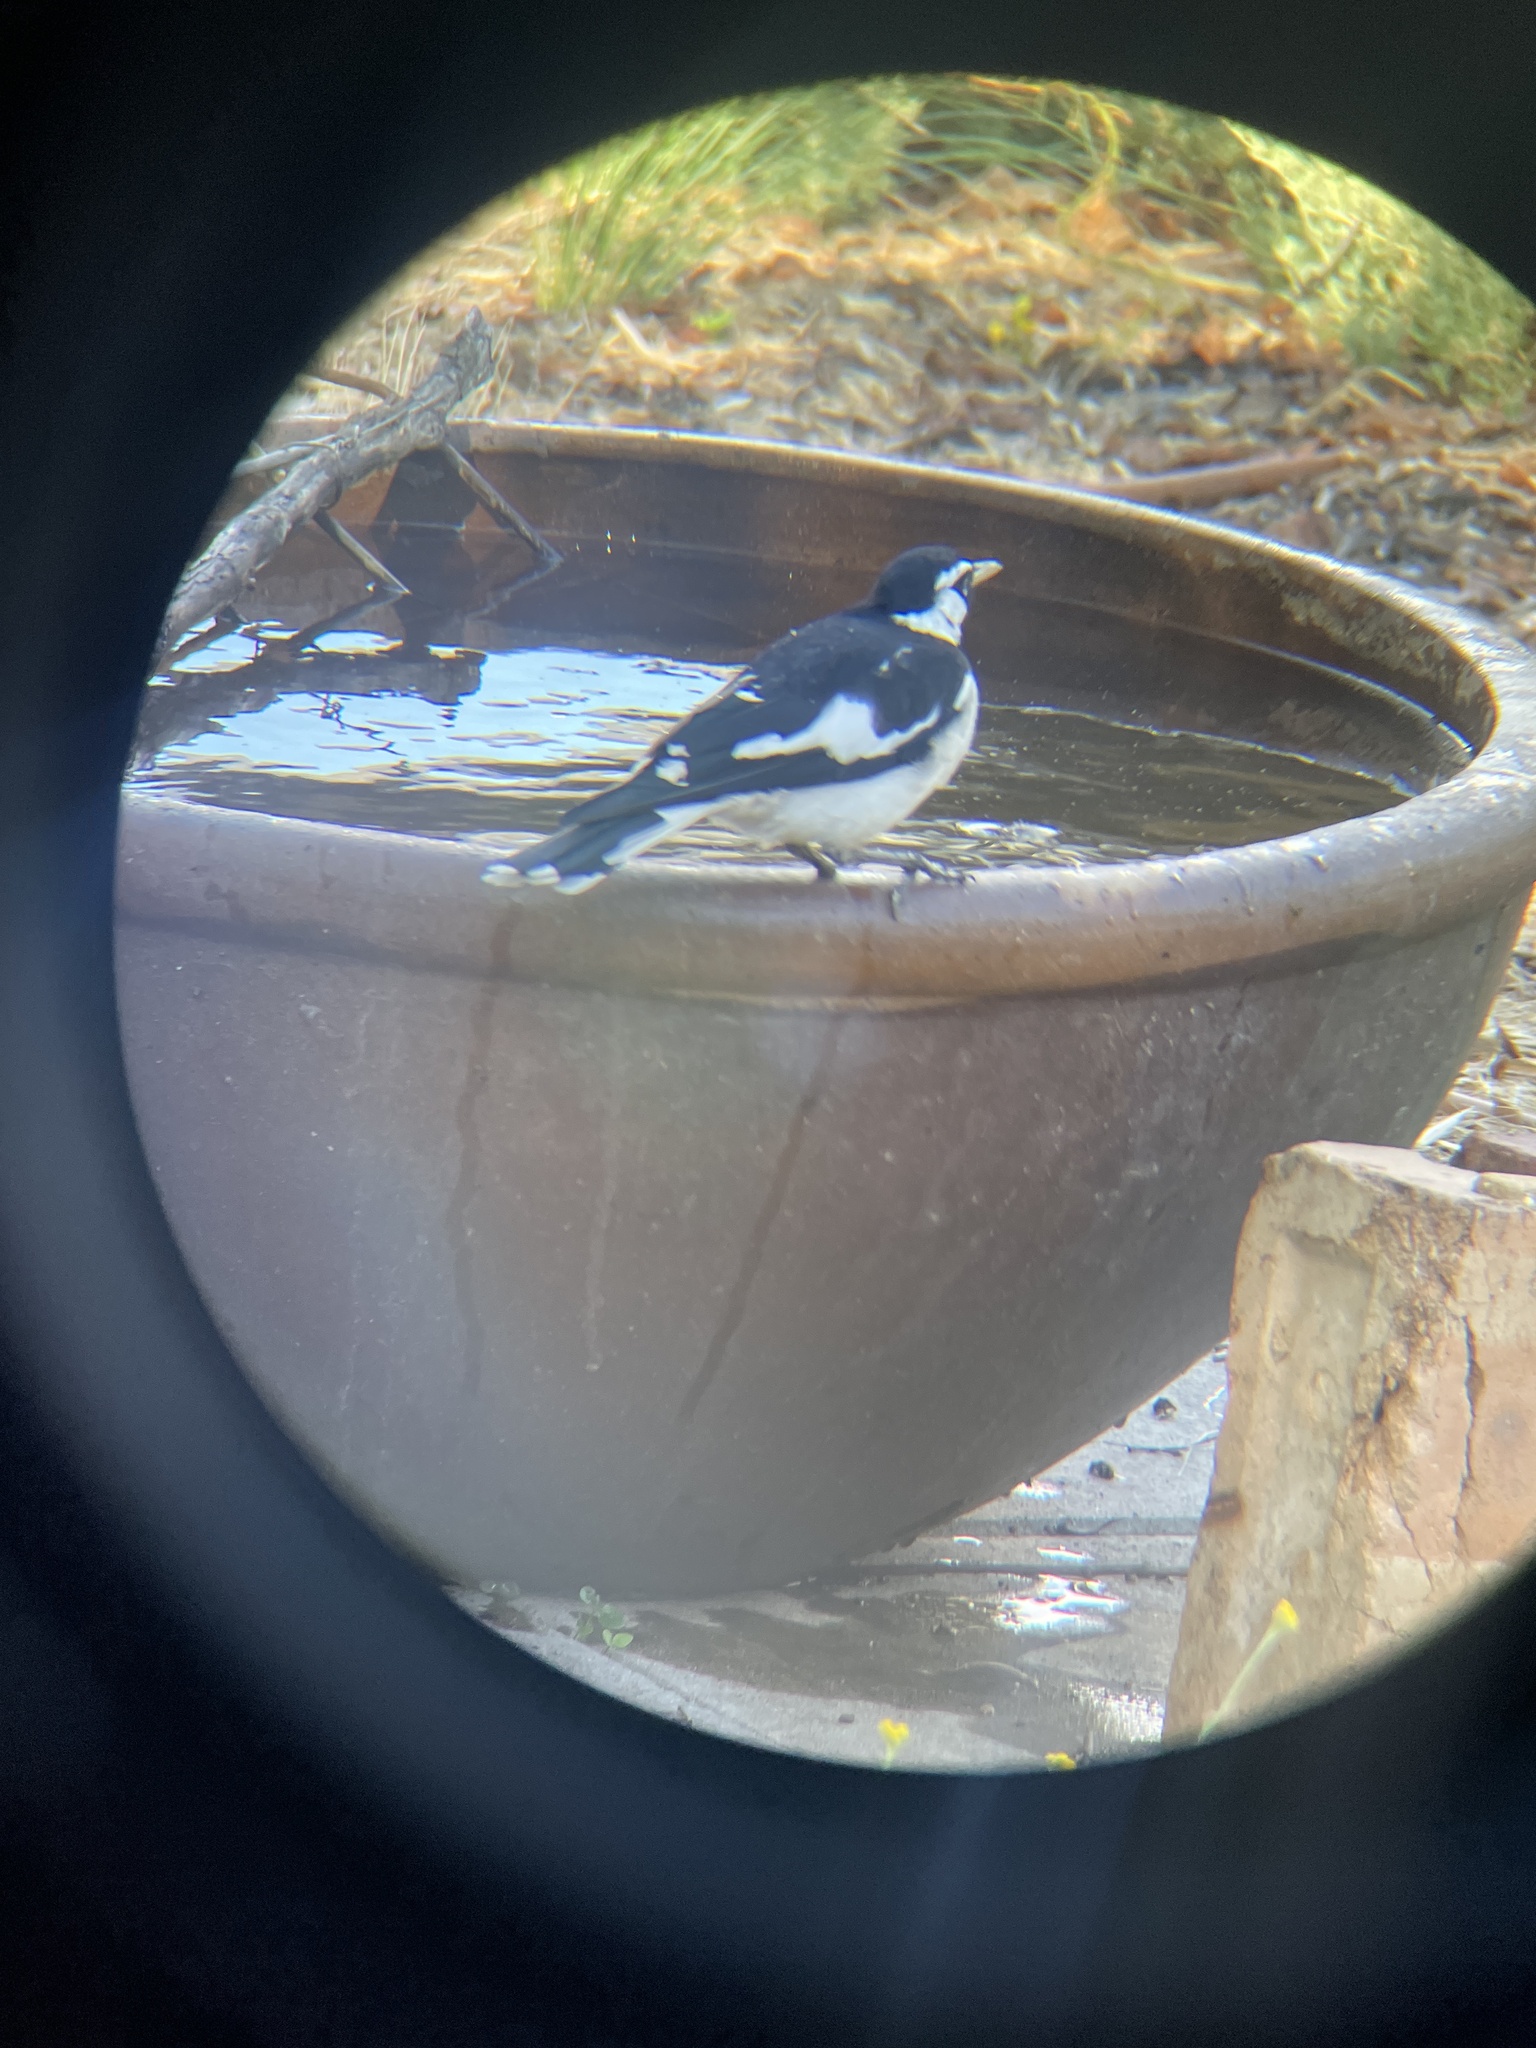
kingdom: Animalia
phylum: Chordata
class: Aves
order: Passeriformes
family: Monarchidae
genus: Grallina
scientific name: Grallina cyanoleuca
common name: Magpie-lark
